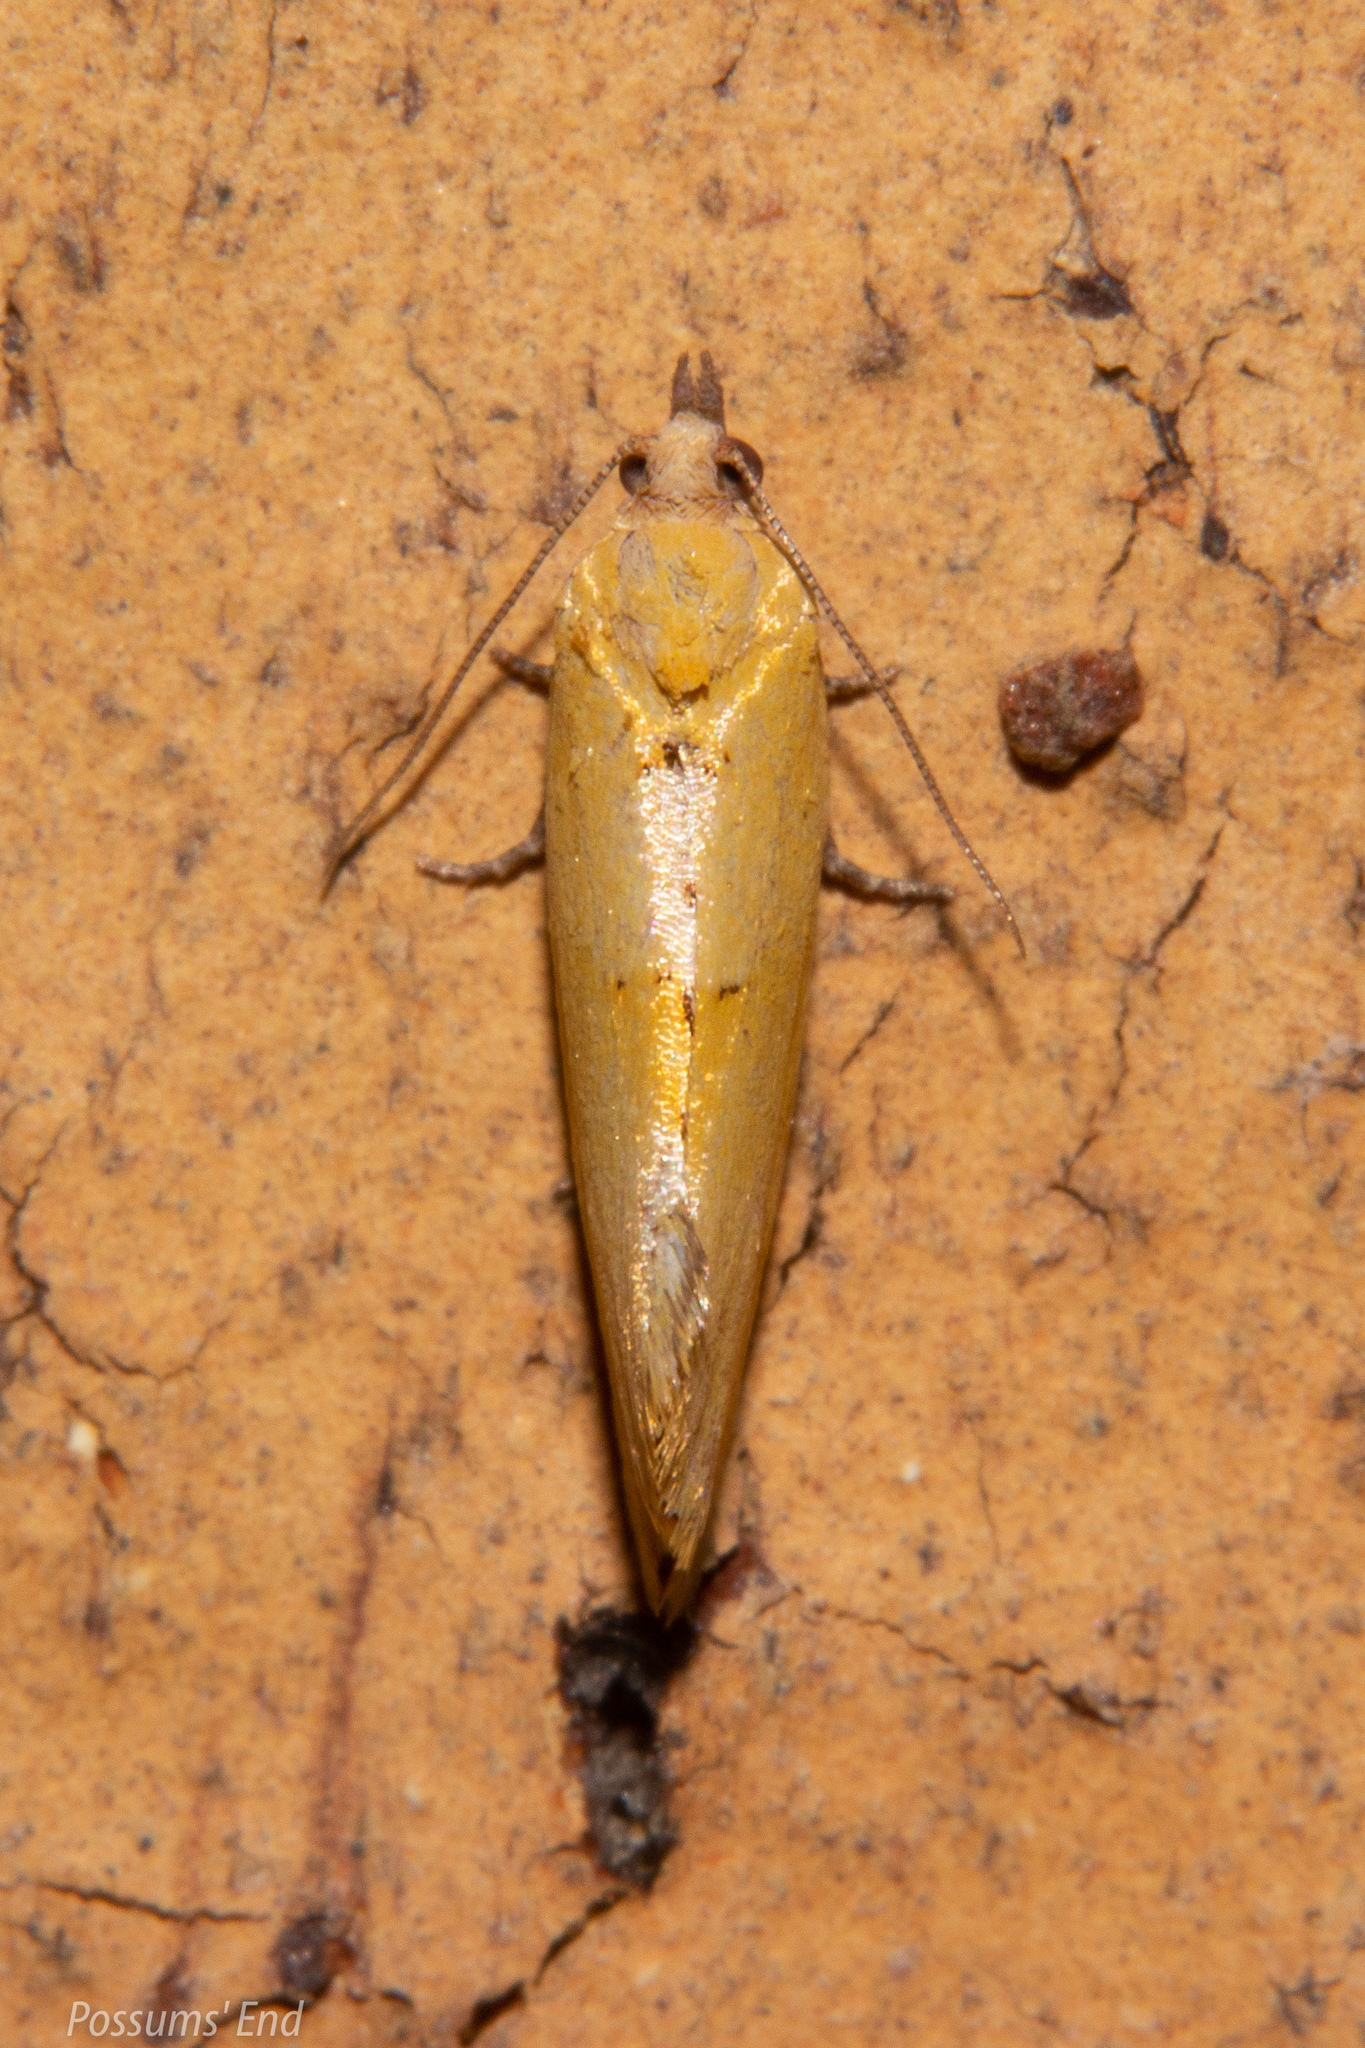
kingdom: Animalia
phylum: Arthropoda
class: Insecta
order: Lepidoptera
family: Tortricidae
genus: Pyrgotis
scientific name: Pyrgotis pyramidias
